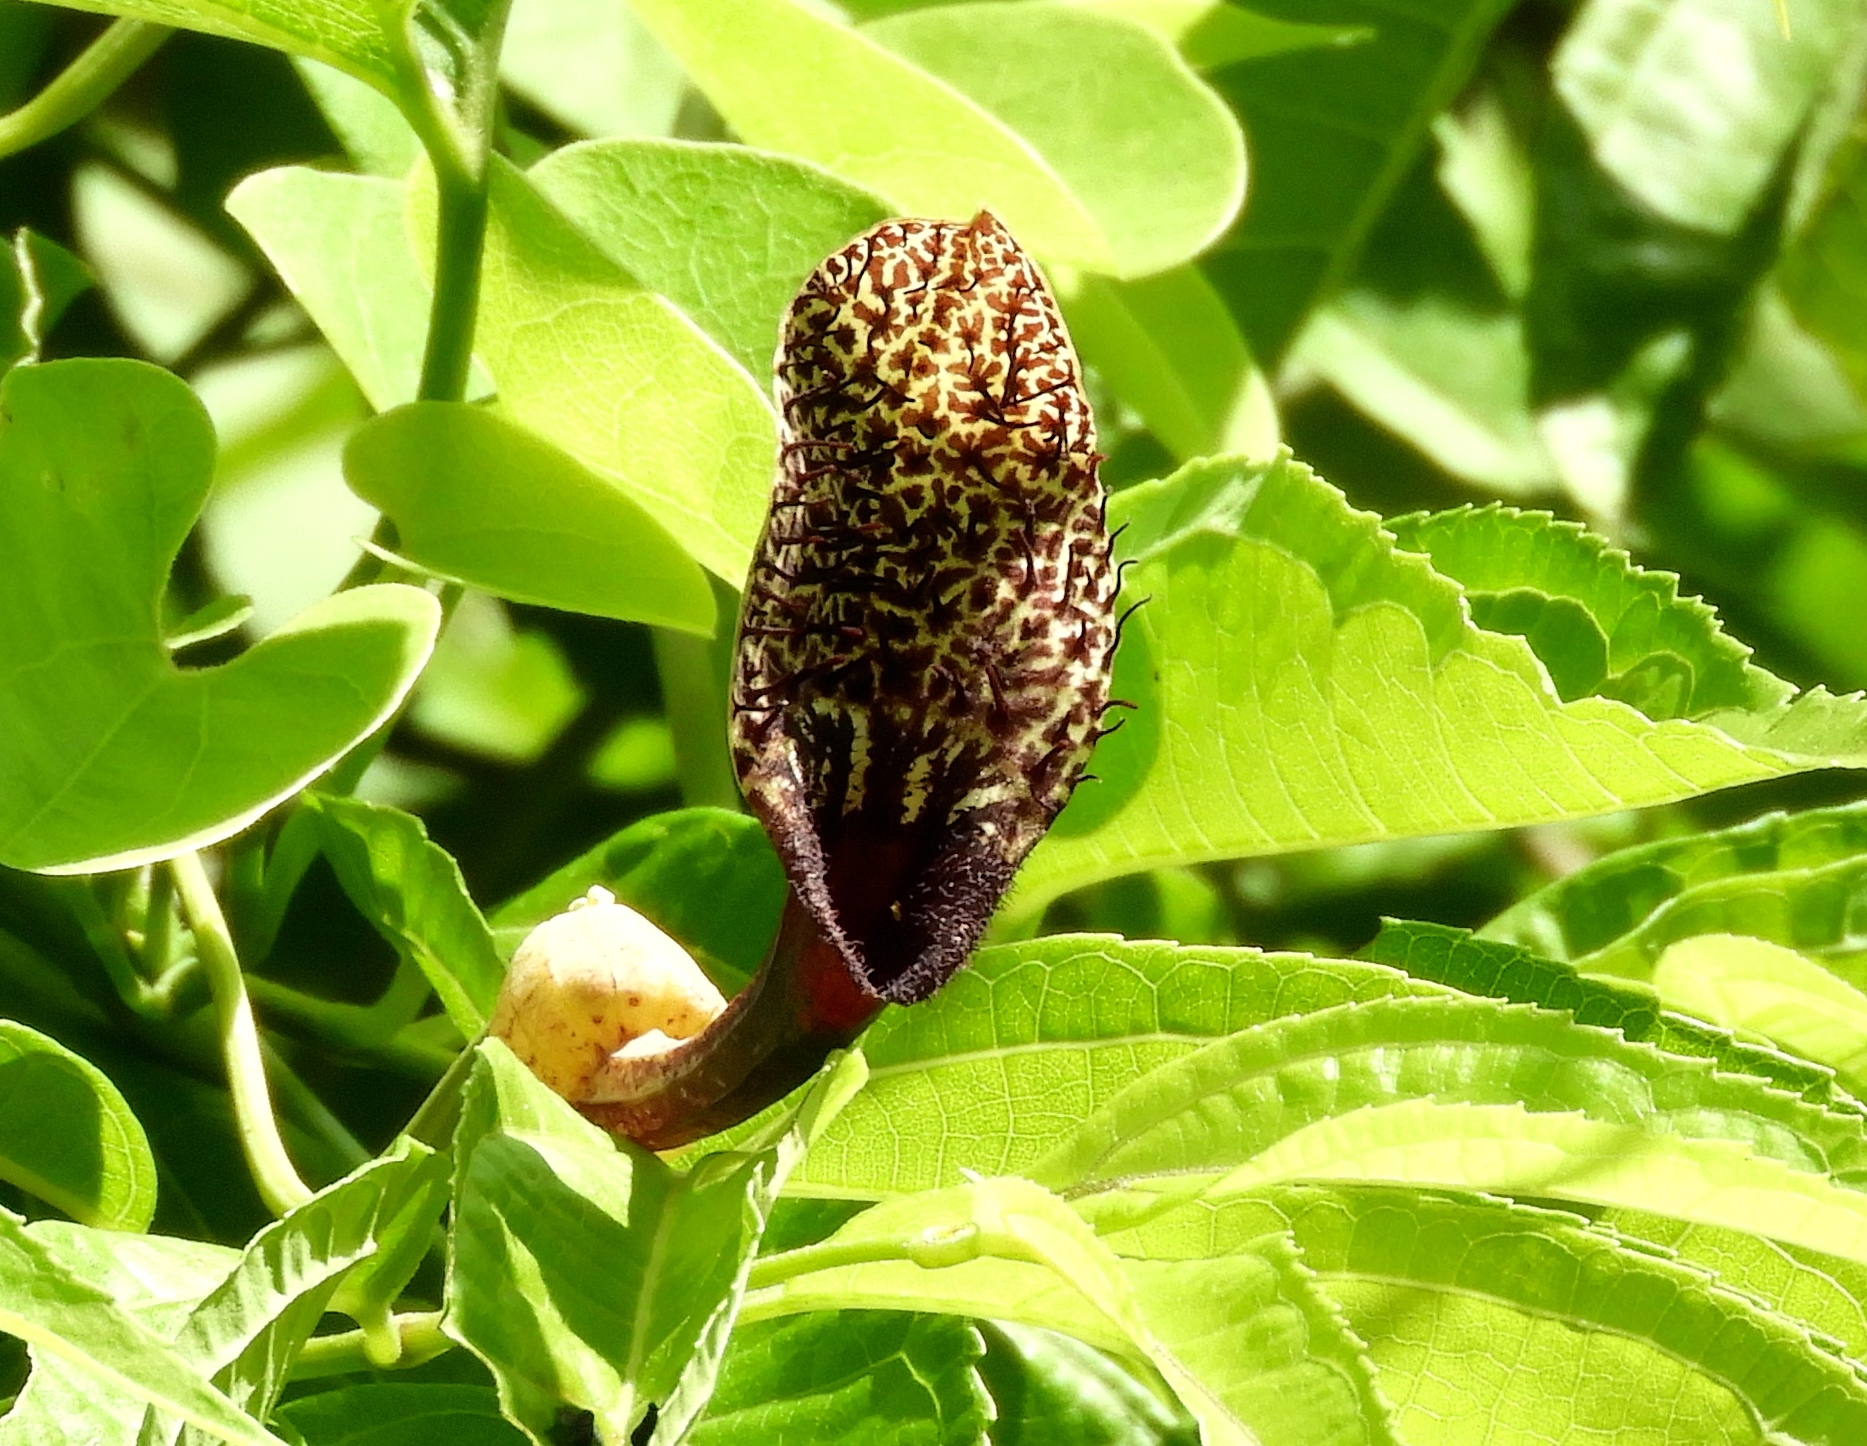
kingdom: Plantae
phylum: Tracheophyta
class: Magnoliopsida
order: Piperales
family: Aristolochiaceae
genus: Aristolochia
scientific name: Aristolochia taliscana
